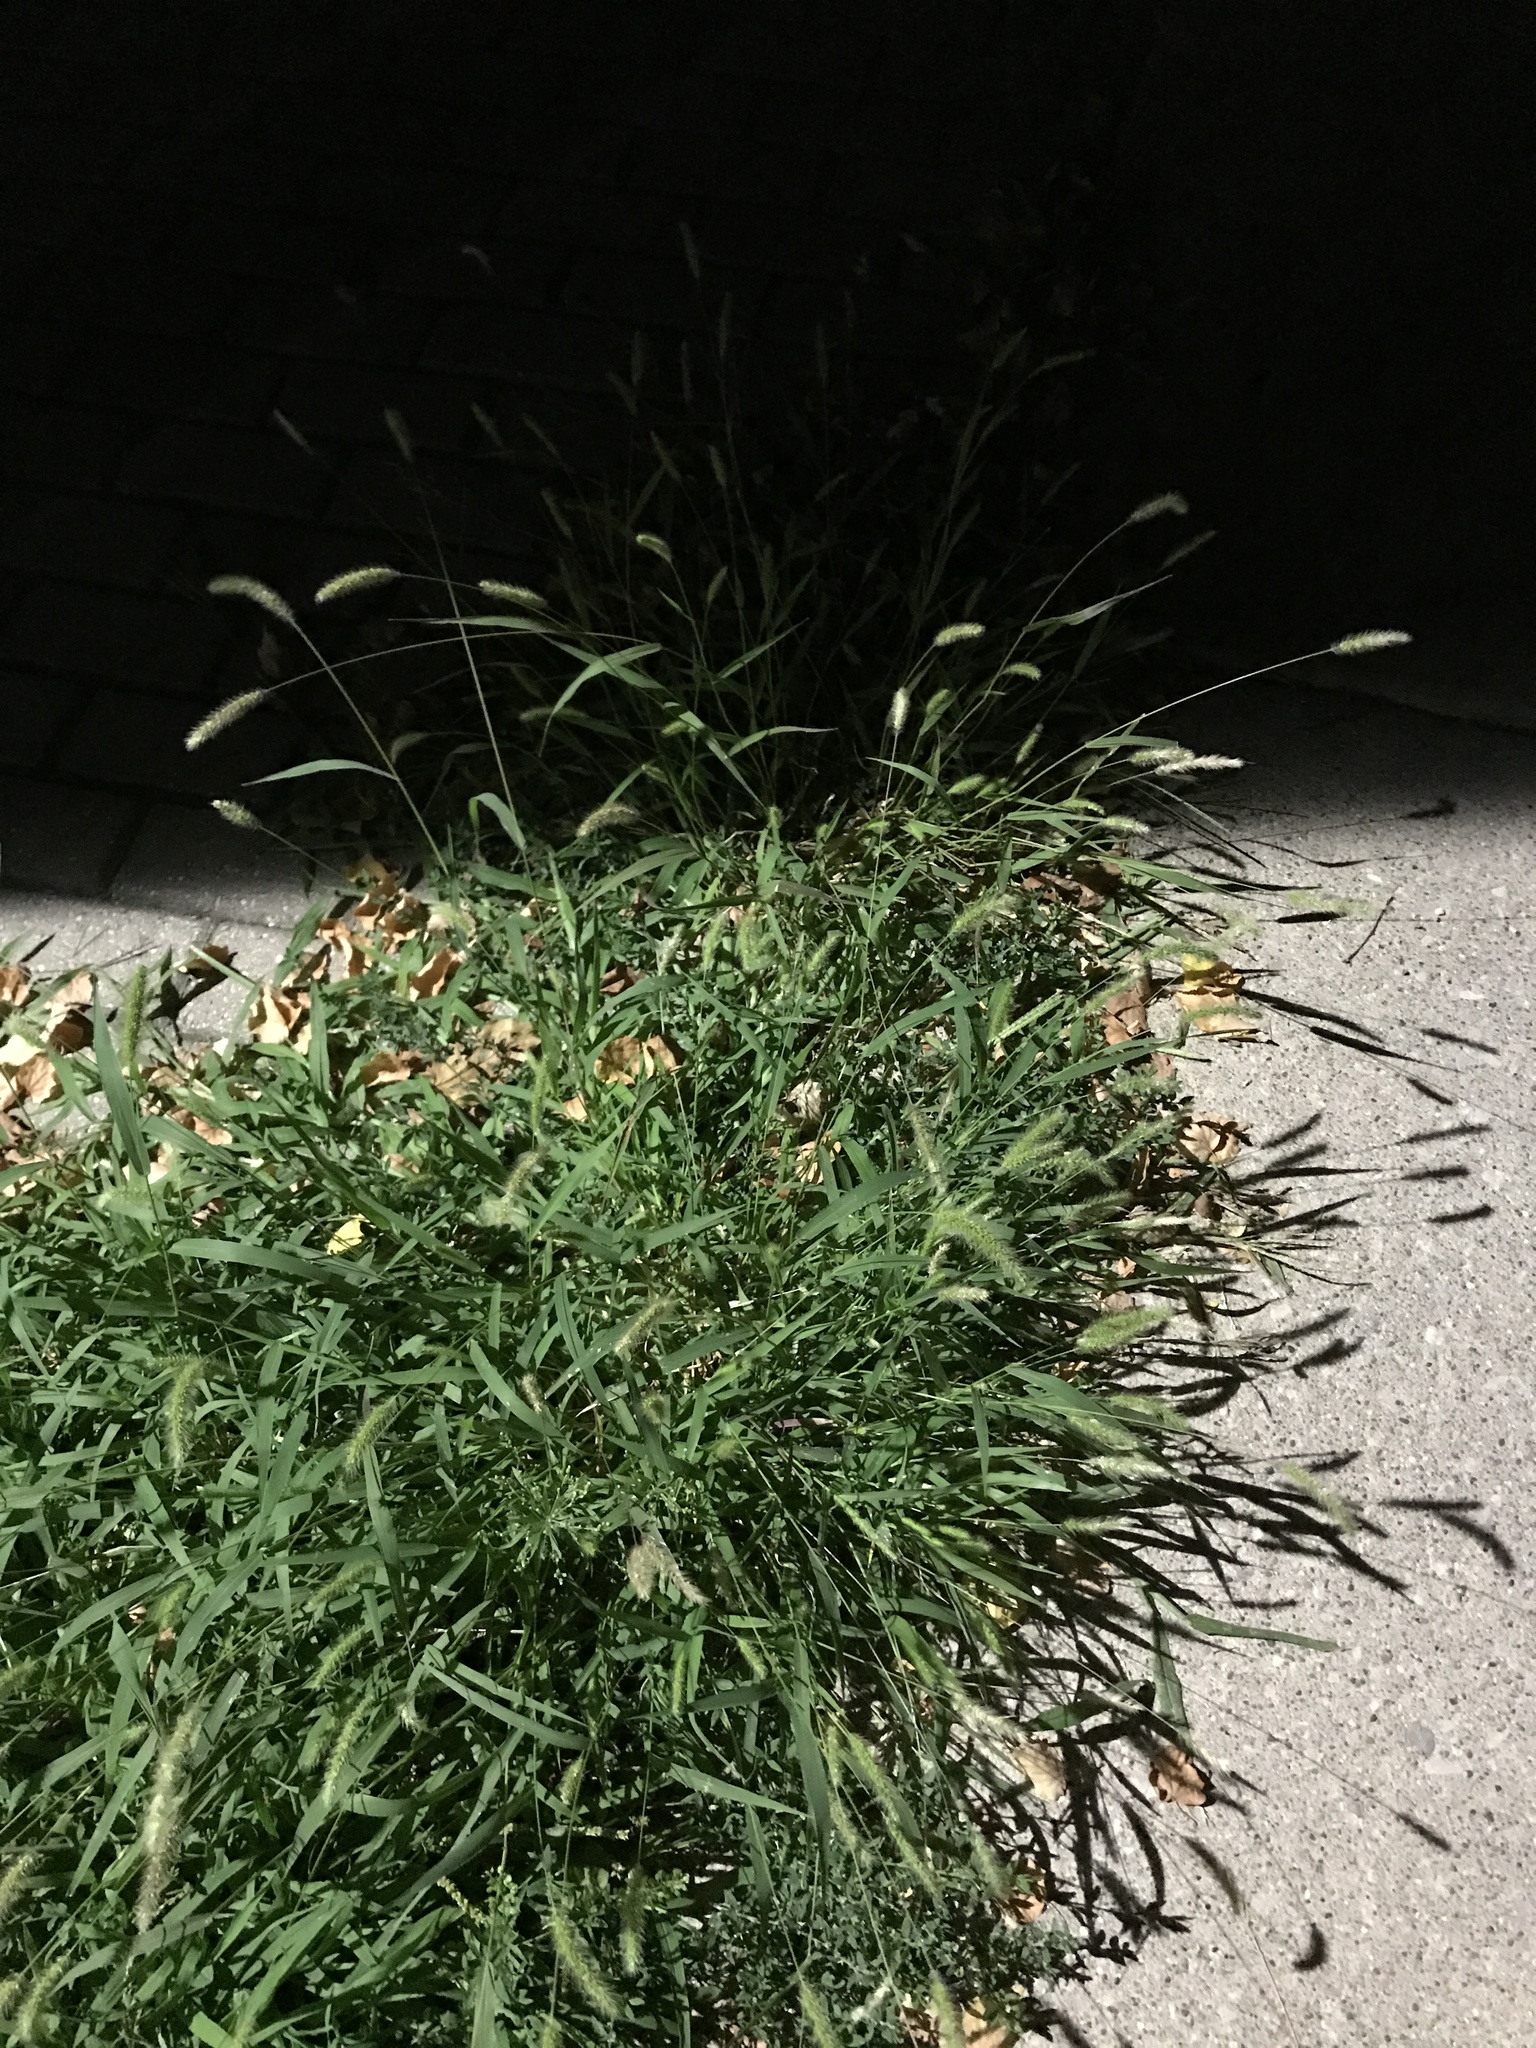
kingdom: Plantae
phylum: Tracheophyta
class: Liliopsida
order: Poales
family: Poaceae
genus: Setaria
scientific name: Setaria viridis
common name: Green bristlegrass
